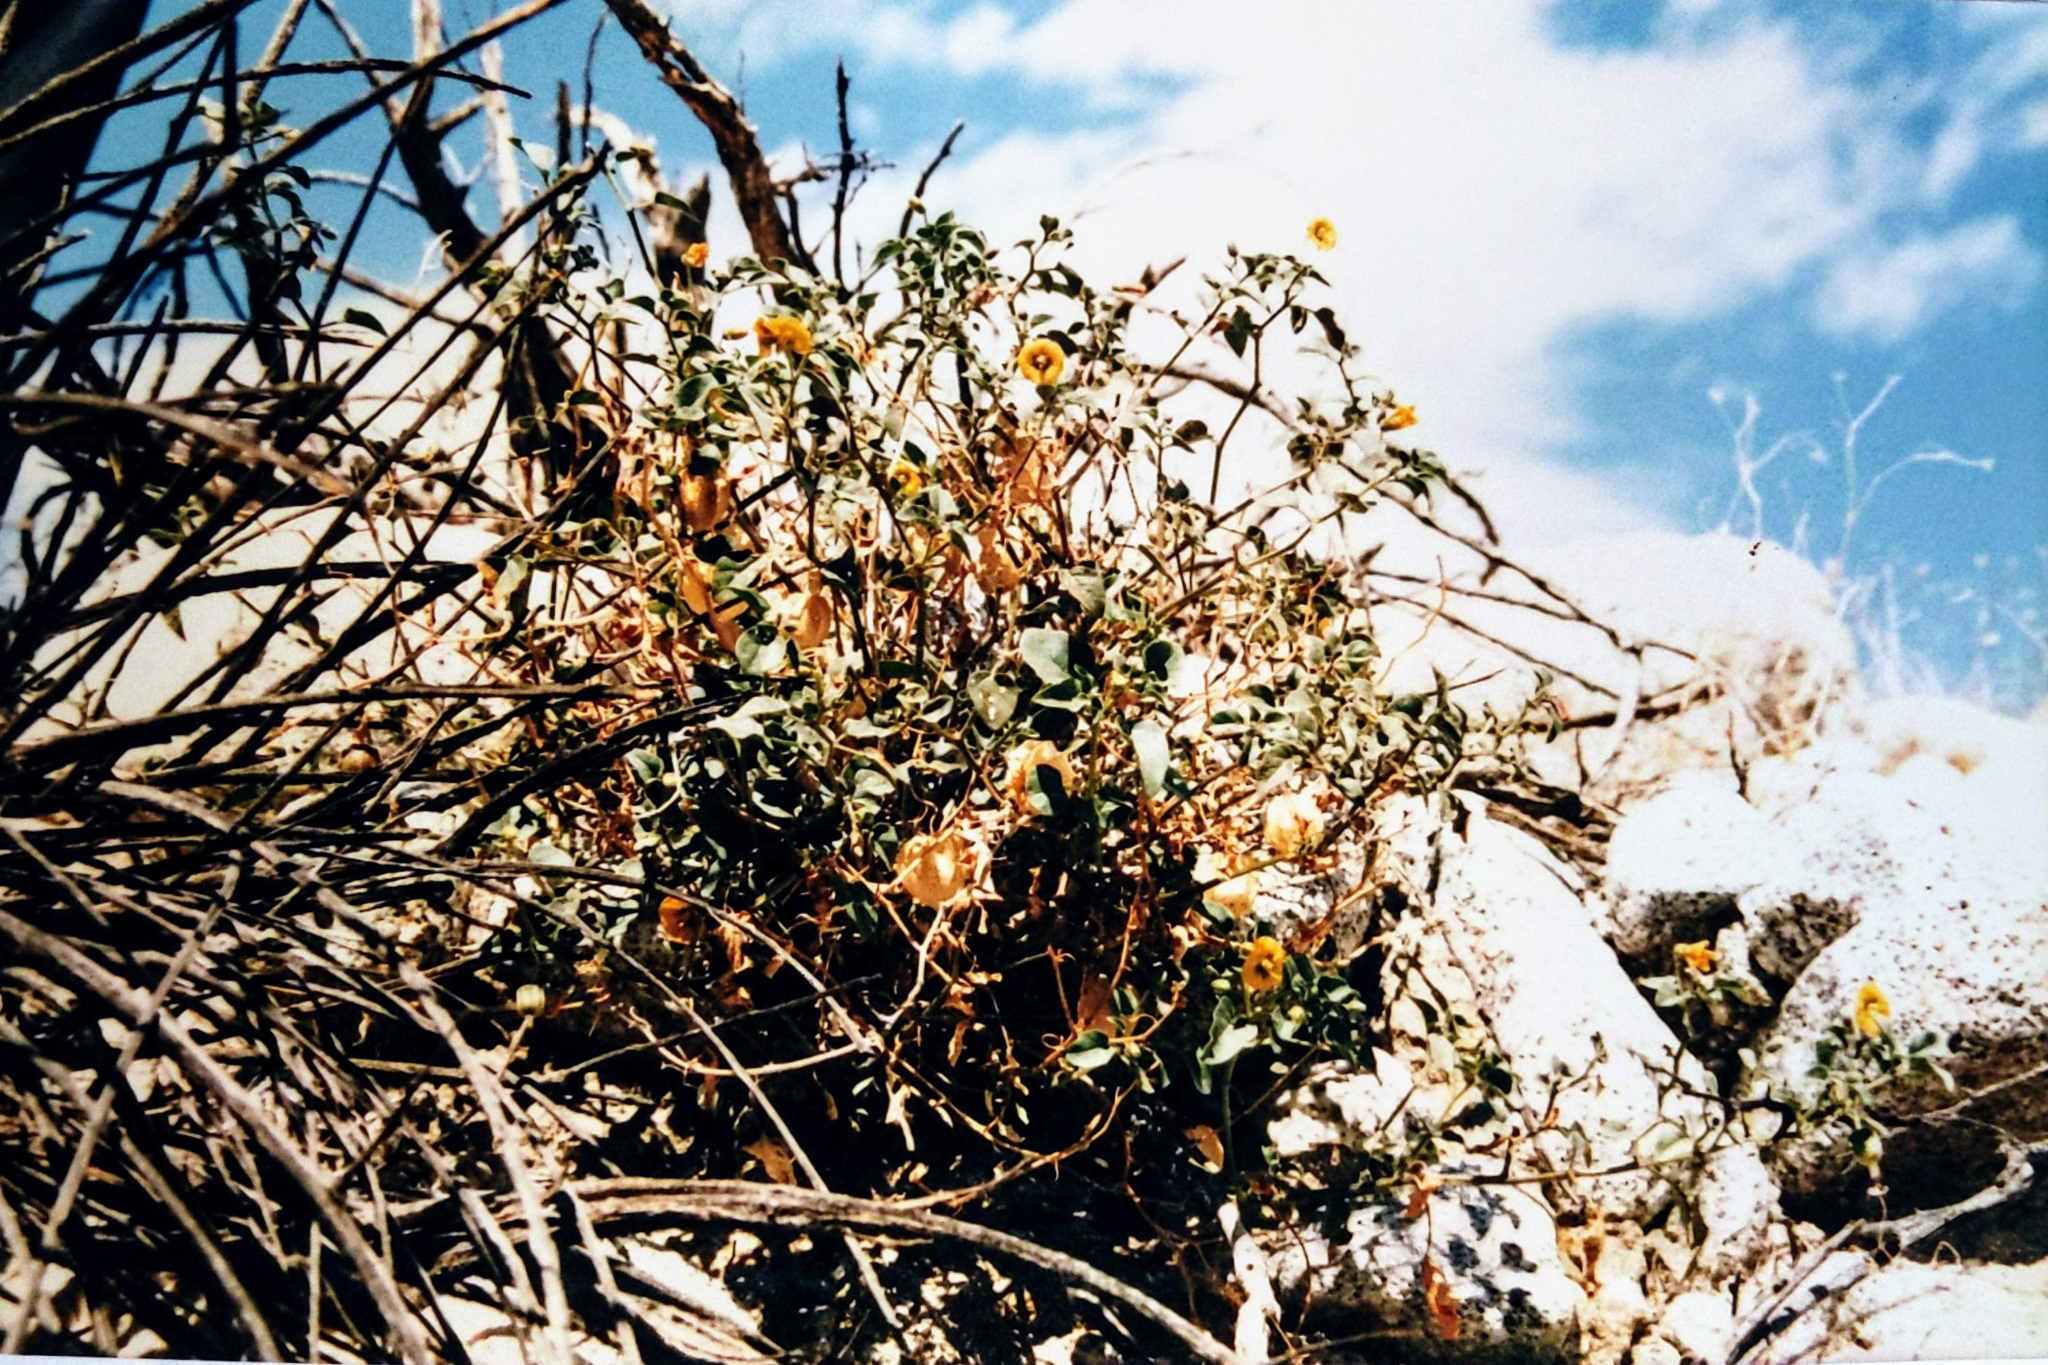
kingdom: Plantae
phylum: Tracheophyta
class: Magnoliopsida
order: Solanales
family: Solanaceae
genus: Physalis
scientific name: Physalis crassifolia
